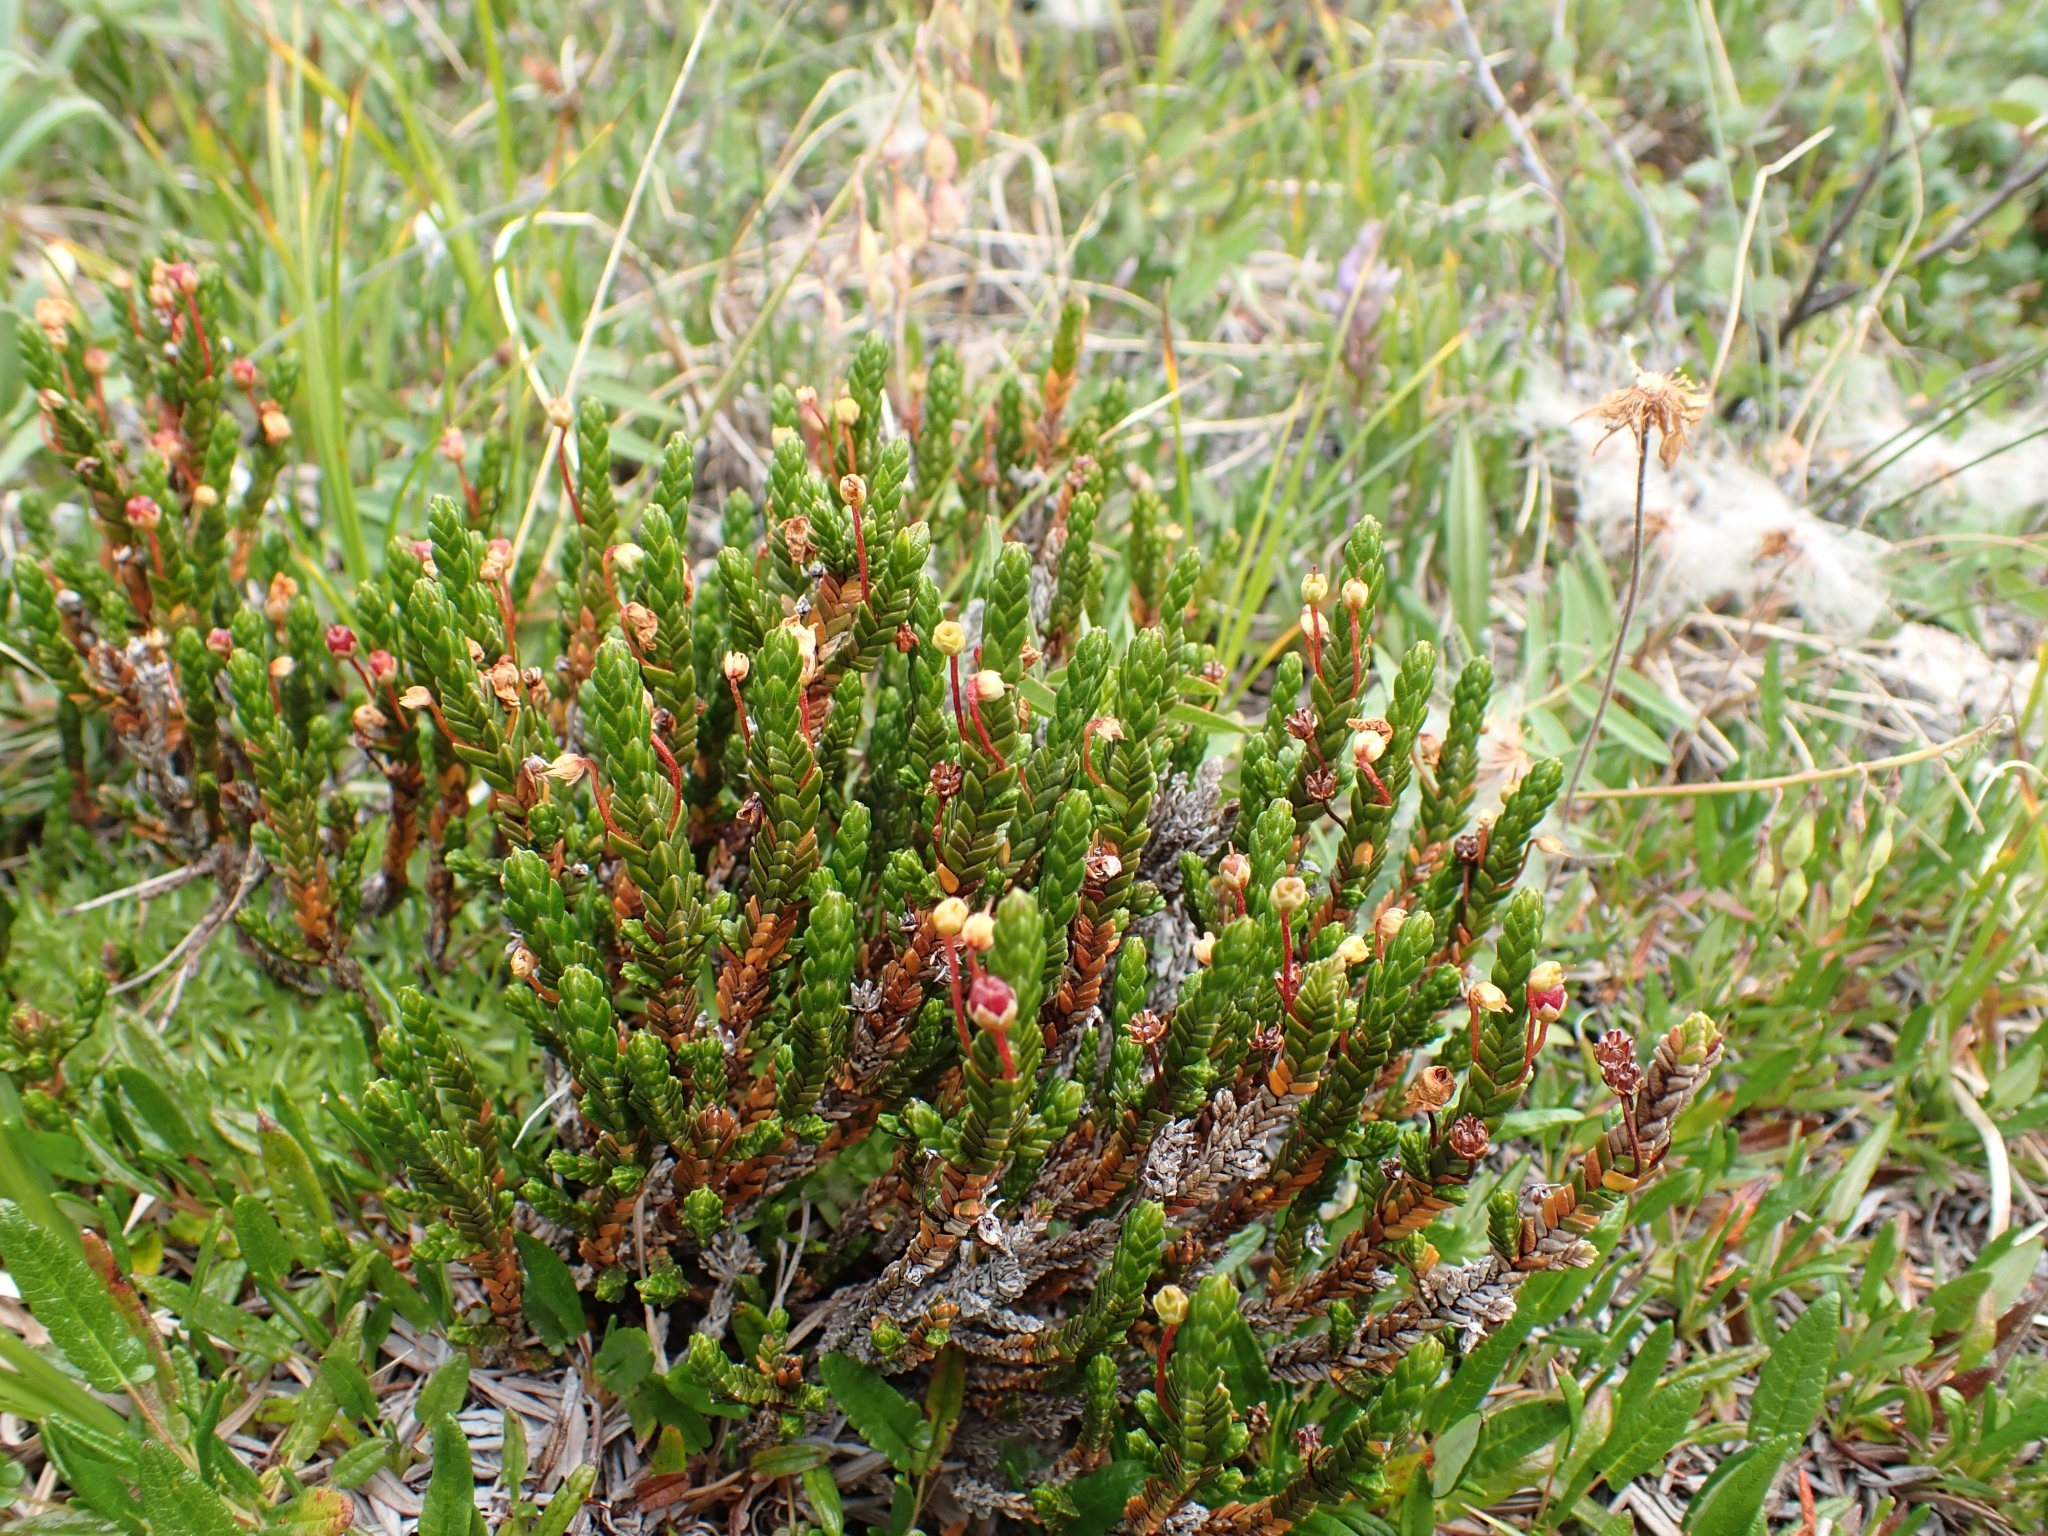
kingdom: Plantae
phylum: Tracheophyta
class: Magnoliopsida
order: Ericales
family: Ericaceae
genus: Cassiope
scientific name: Cassiope tetragona
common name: Arctic bell heather
